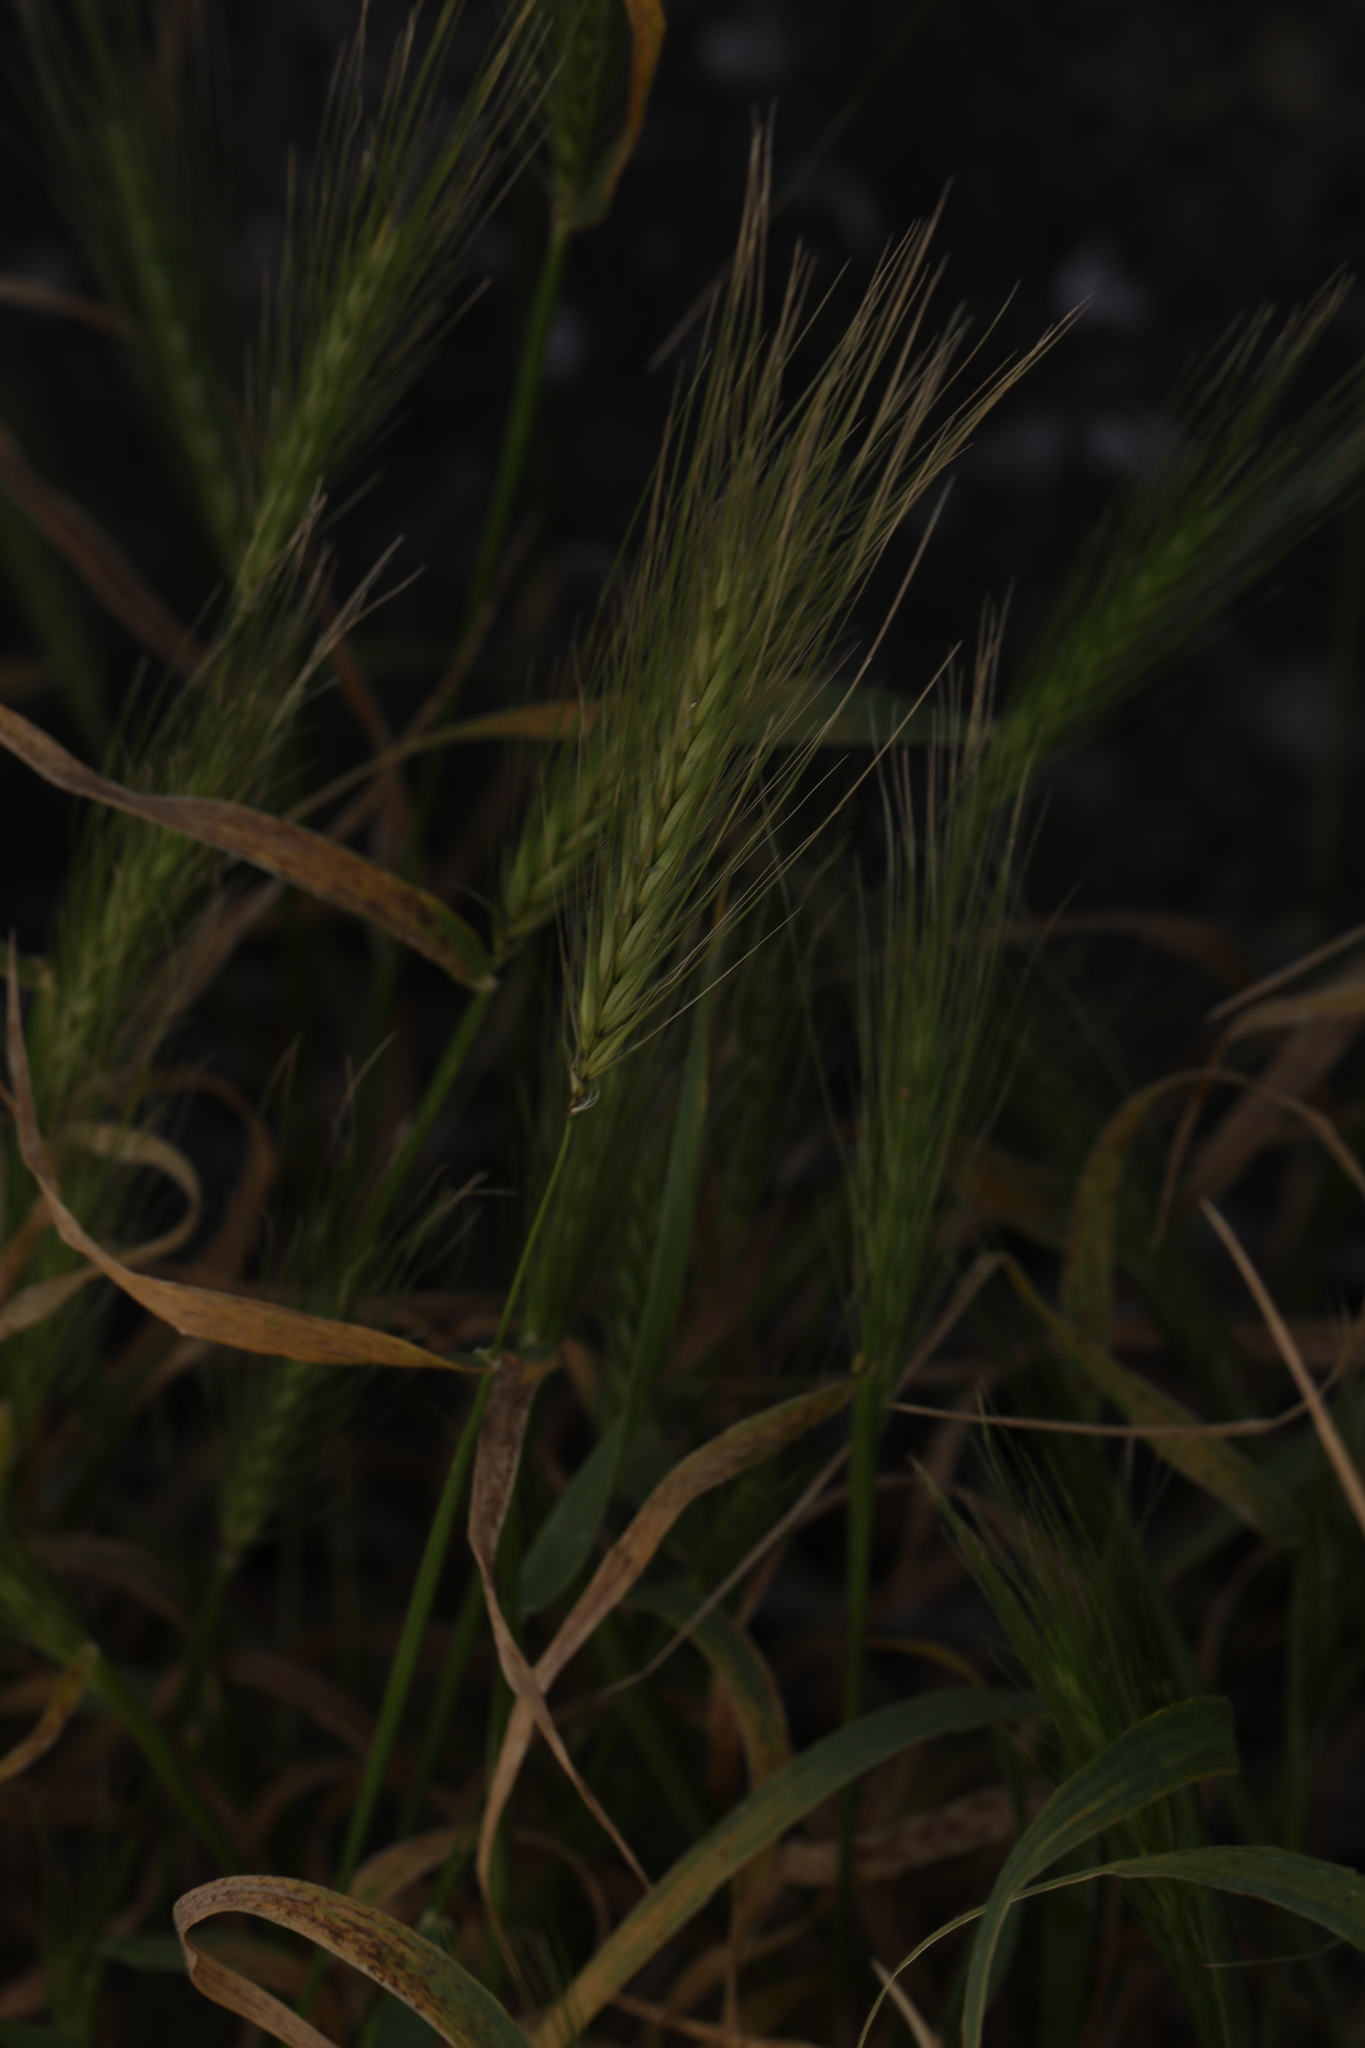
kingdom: Plantae
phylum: Tracheophyta
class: Liliopsida
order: Poales
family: Poaceae
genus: Hordeum
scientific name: Hordeum murinum
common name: Wall barley
